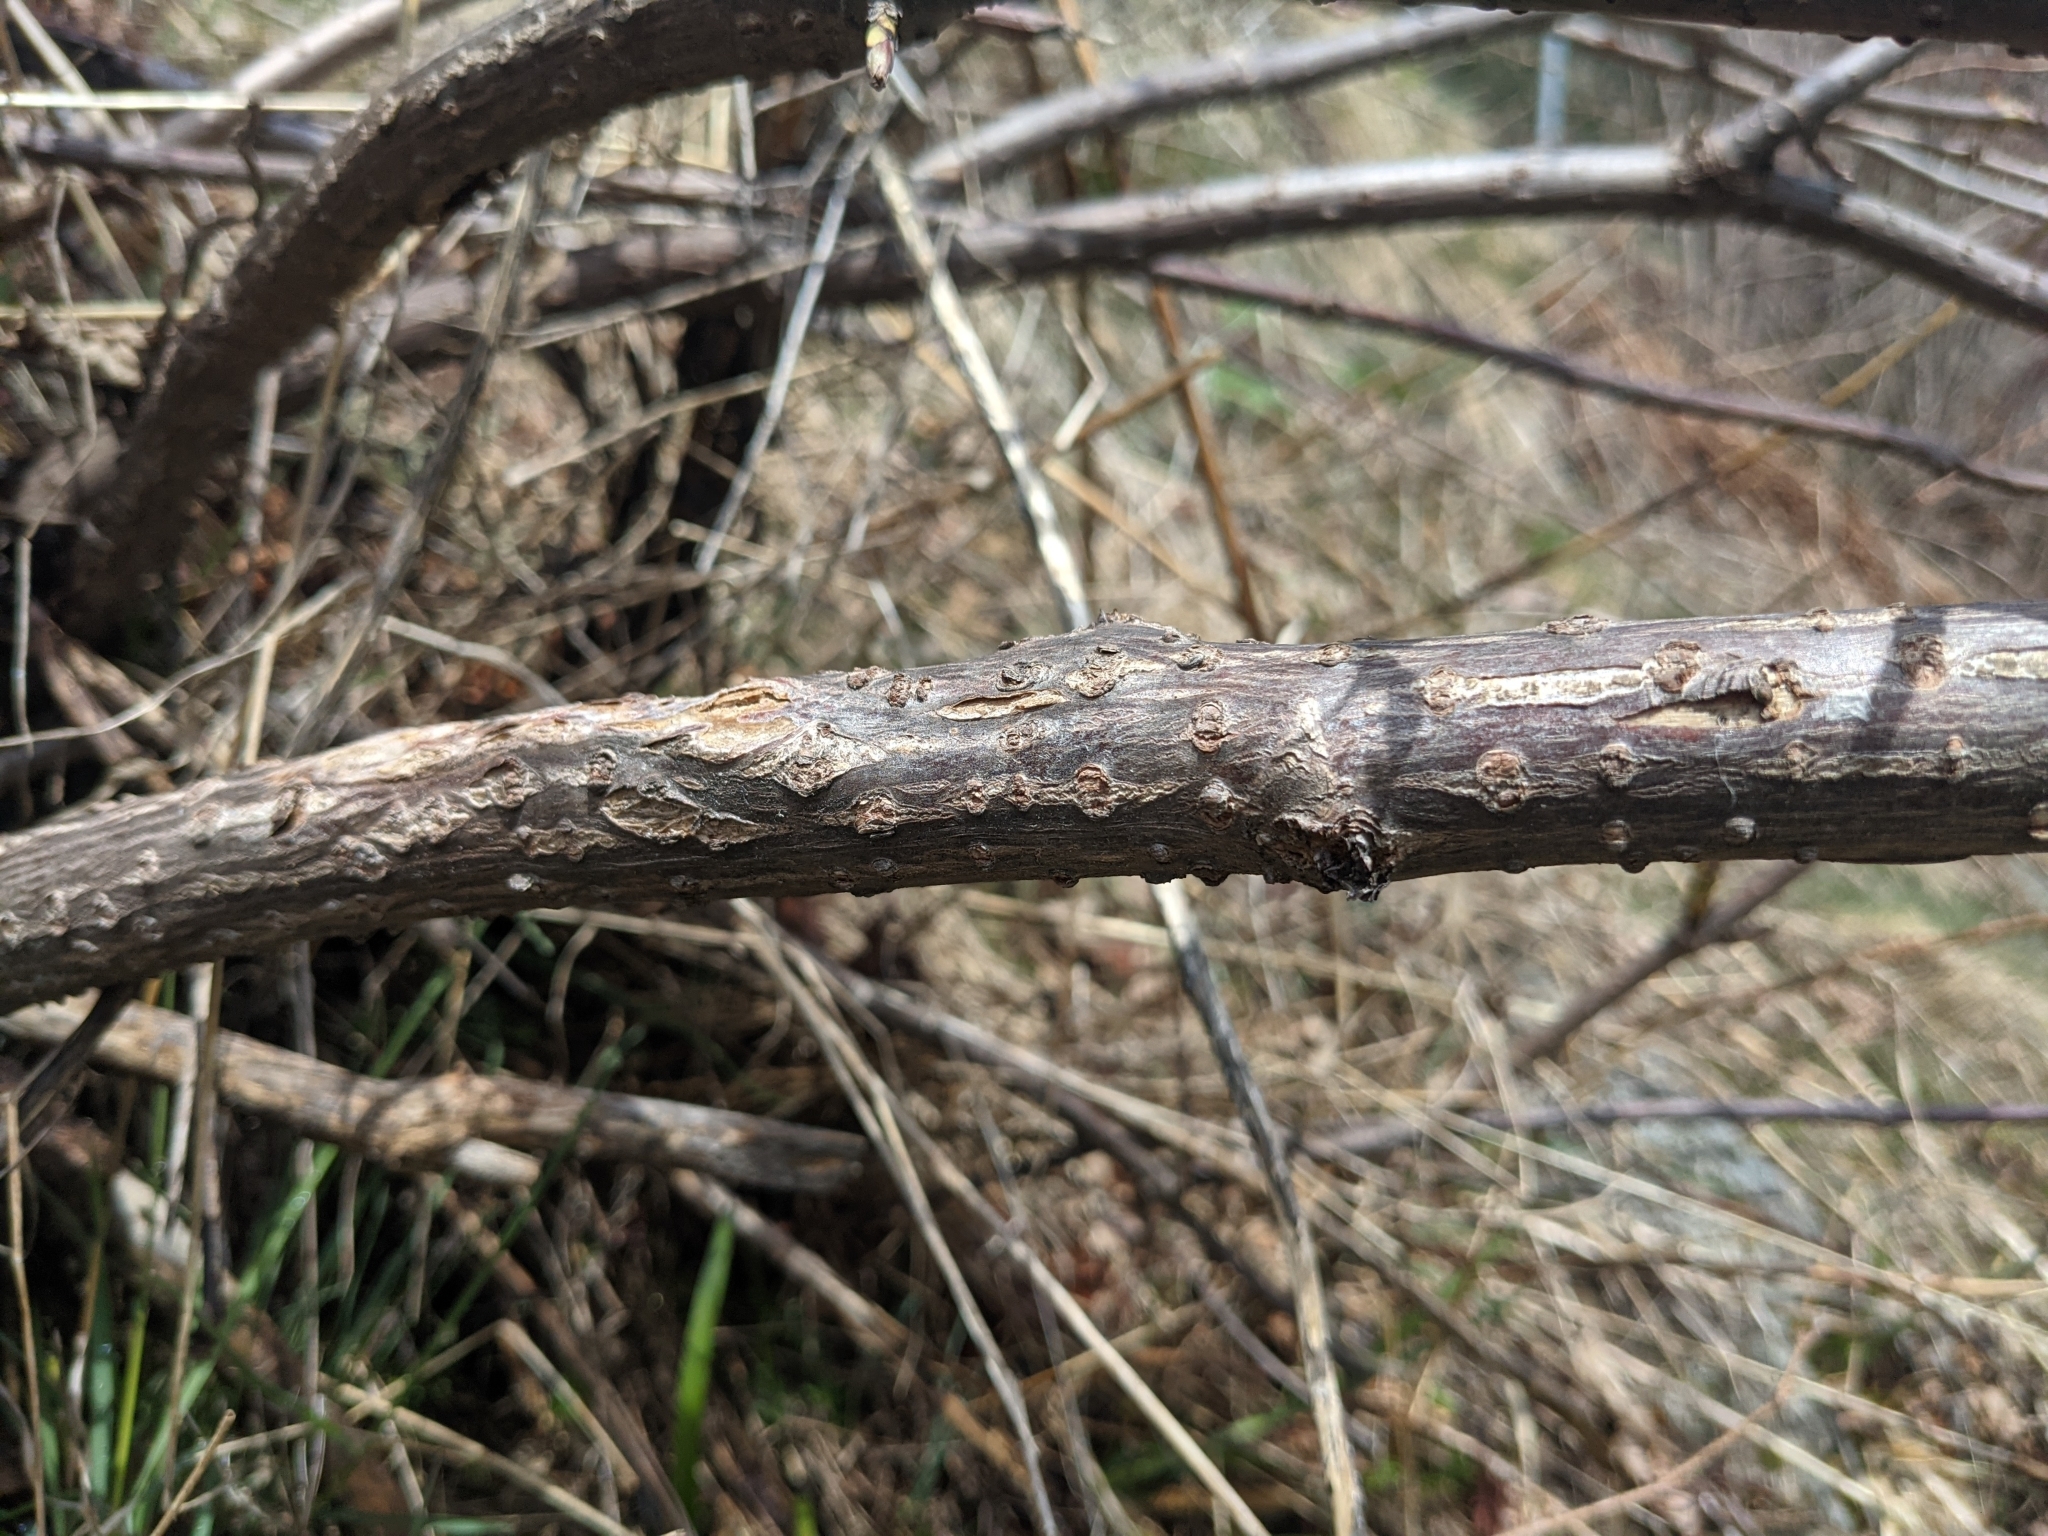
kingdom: Plantae
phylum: Tracheophyta
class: Magnoliopsida
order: Dipsacales
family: Viburnaceae
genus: Sambucus
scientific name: Sambucus racemosa
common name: Red-berried elder
